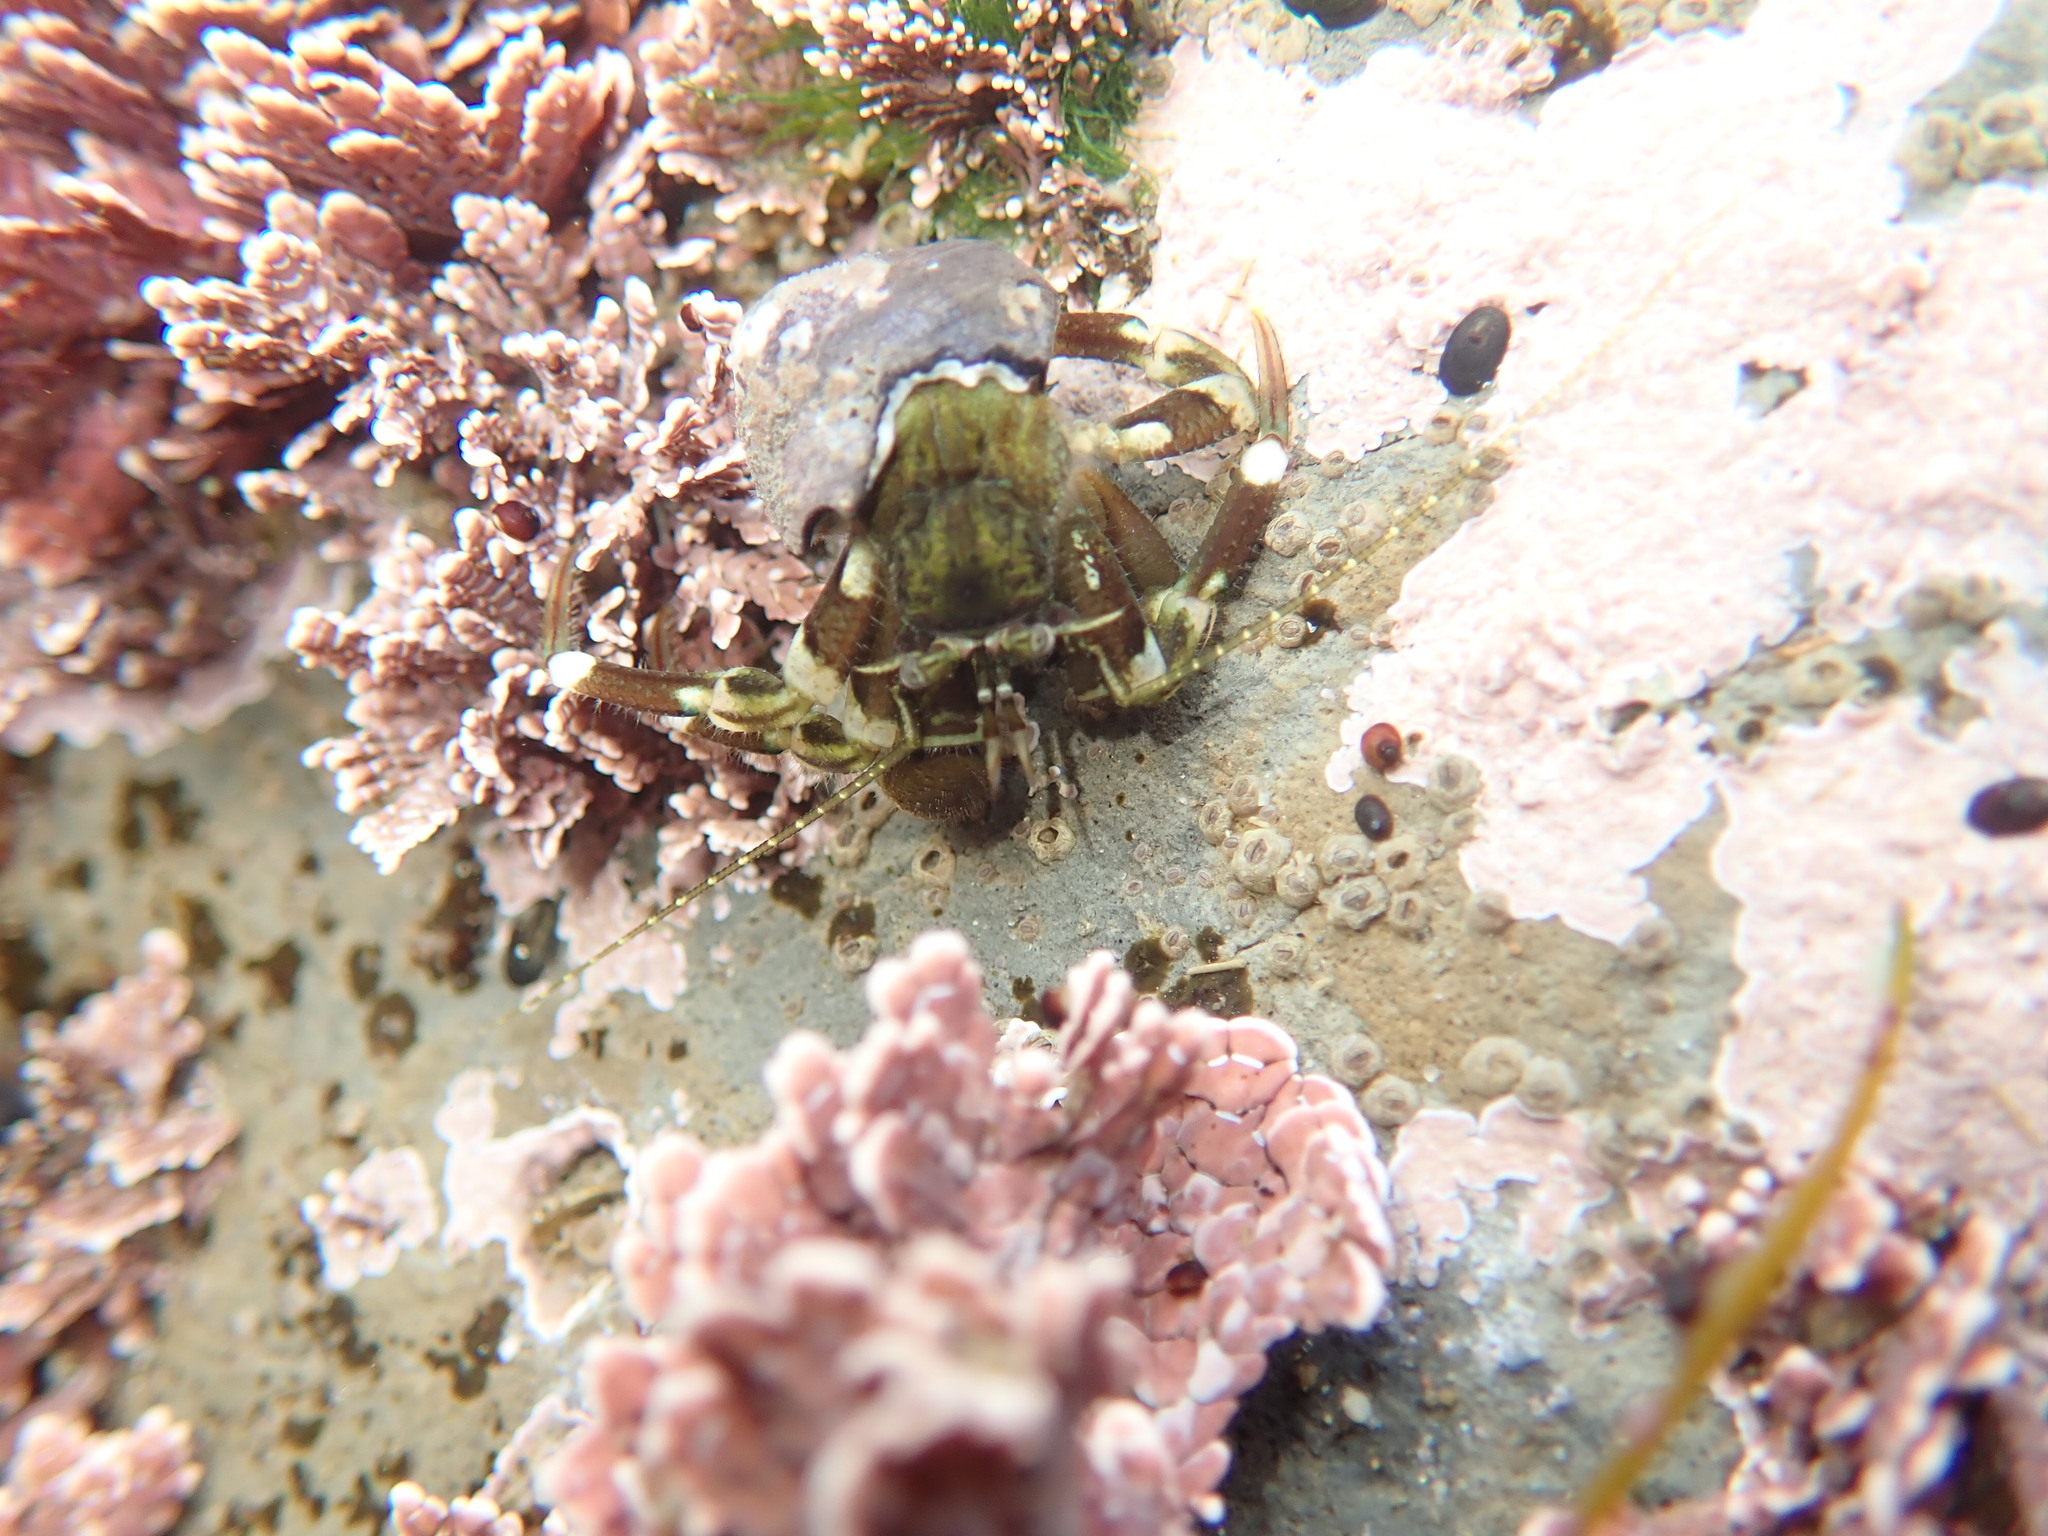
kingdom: Animalia
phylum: Arthropoda
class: Malacostraca
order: Decapoda
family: Paguridae
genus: Pagurus
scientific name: Pagurus hirsutiusculus
